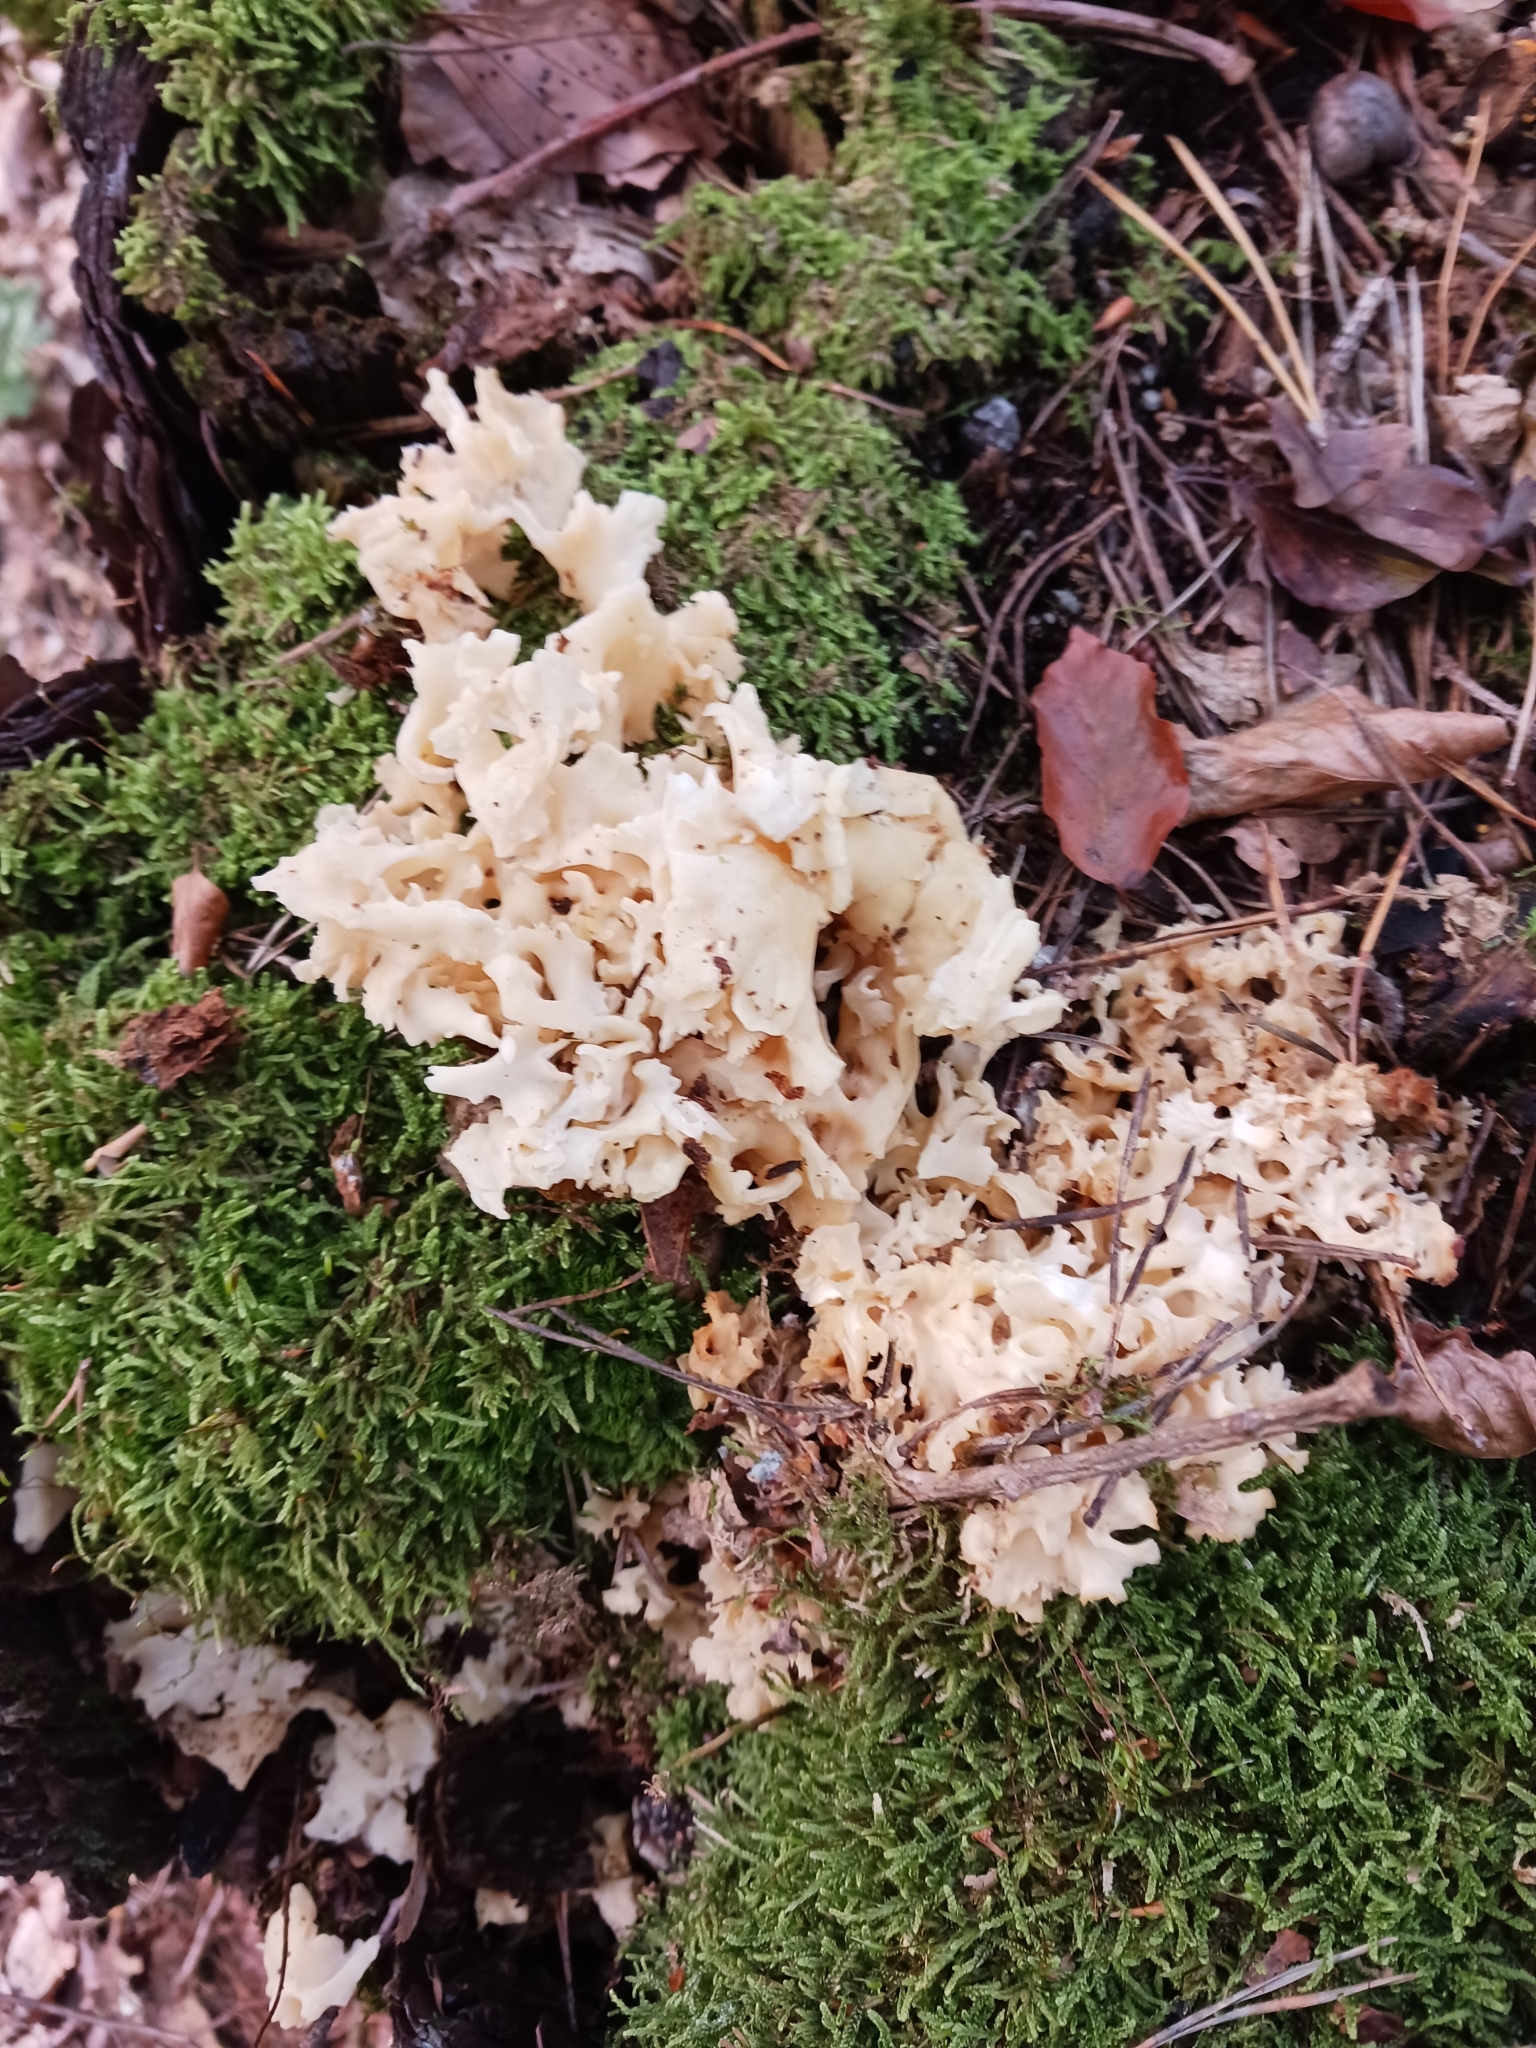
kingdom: Fungi
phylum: Basidiomycota
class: Agaricomycetes
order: Polyporales
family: Sparassidaceae
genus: Sparassis
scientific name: Sparassis crispa
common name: Brain fungus
